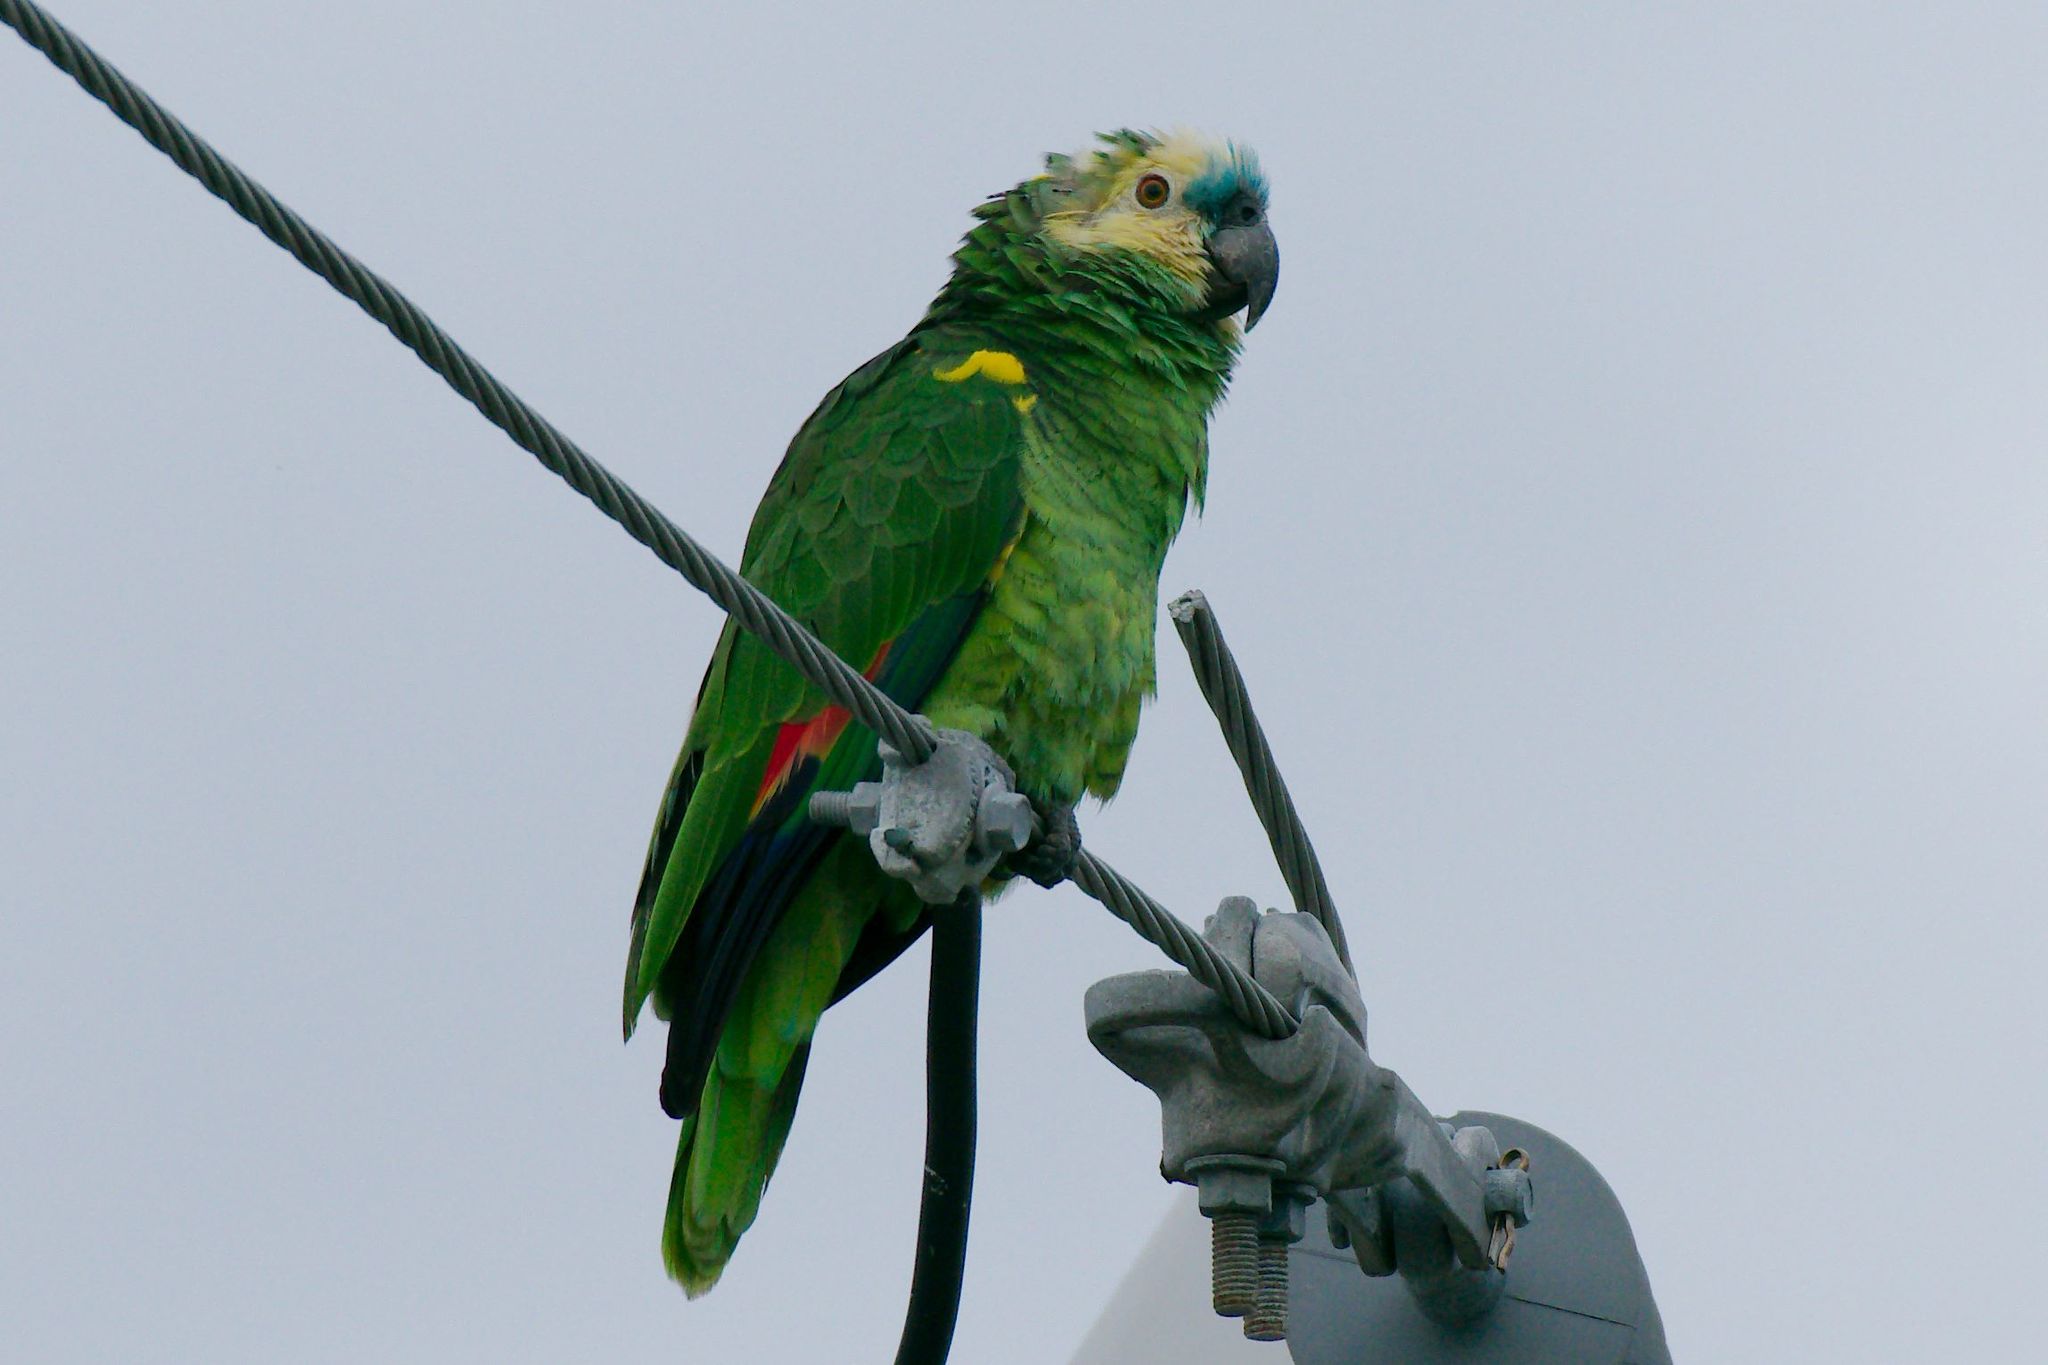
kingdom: Animalia
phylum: Chordata
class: Aves
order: Psittaciformes
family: Psittacidae
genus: Amazona
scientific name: Amazona aestiva
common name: Turquoise-fronted amazon
